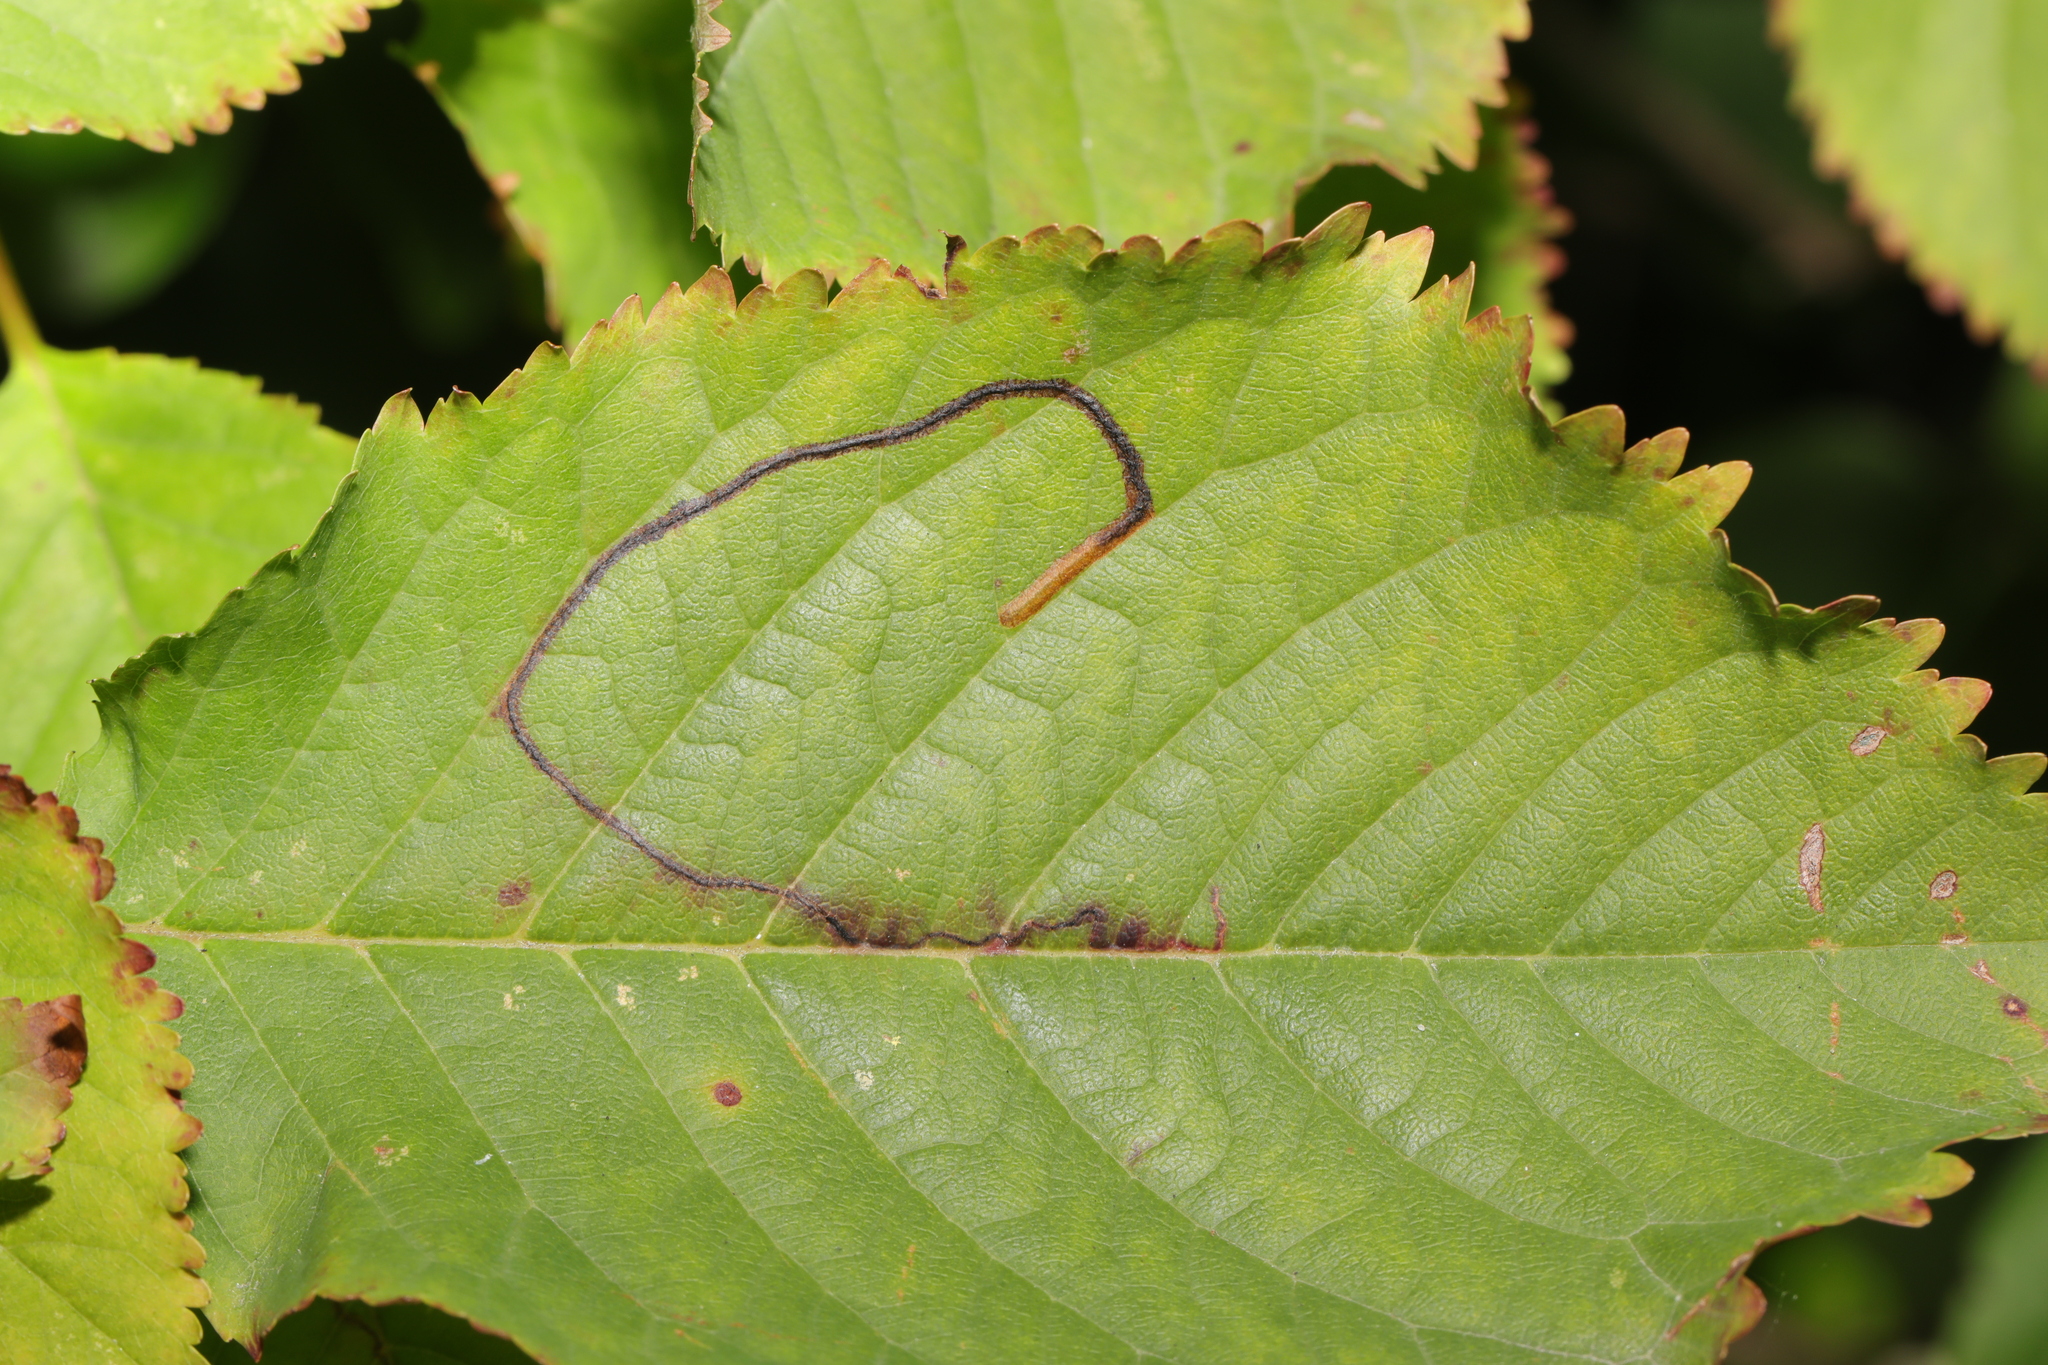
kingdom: Animalia
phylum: Arthropoda
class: Insecta
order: Lepidoptera
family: Lyonetiidae
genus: Lyonetia
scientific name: Lyonetia clerkella
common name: Apple leaf miner
